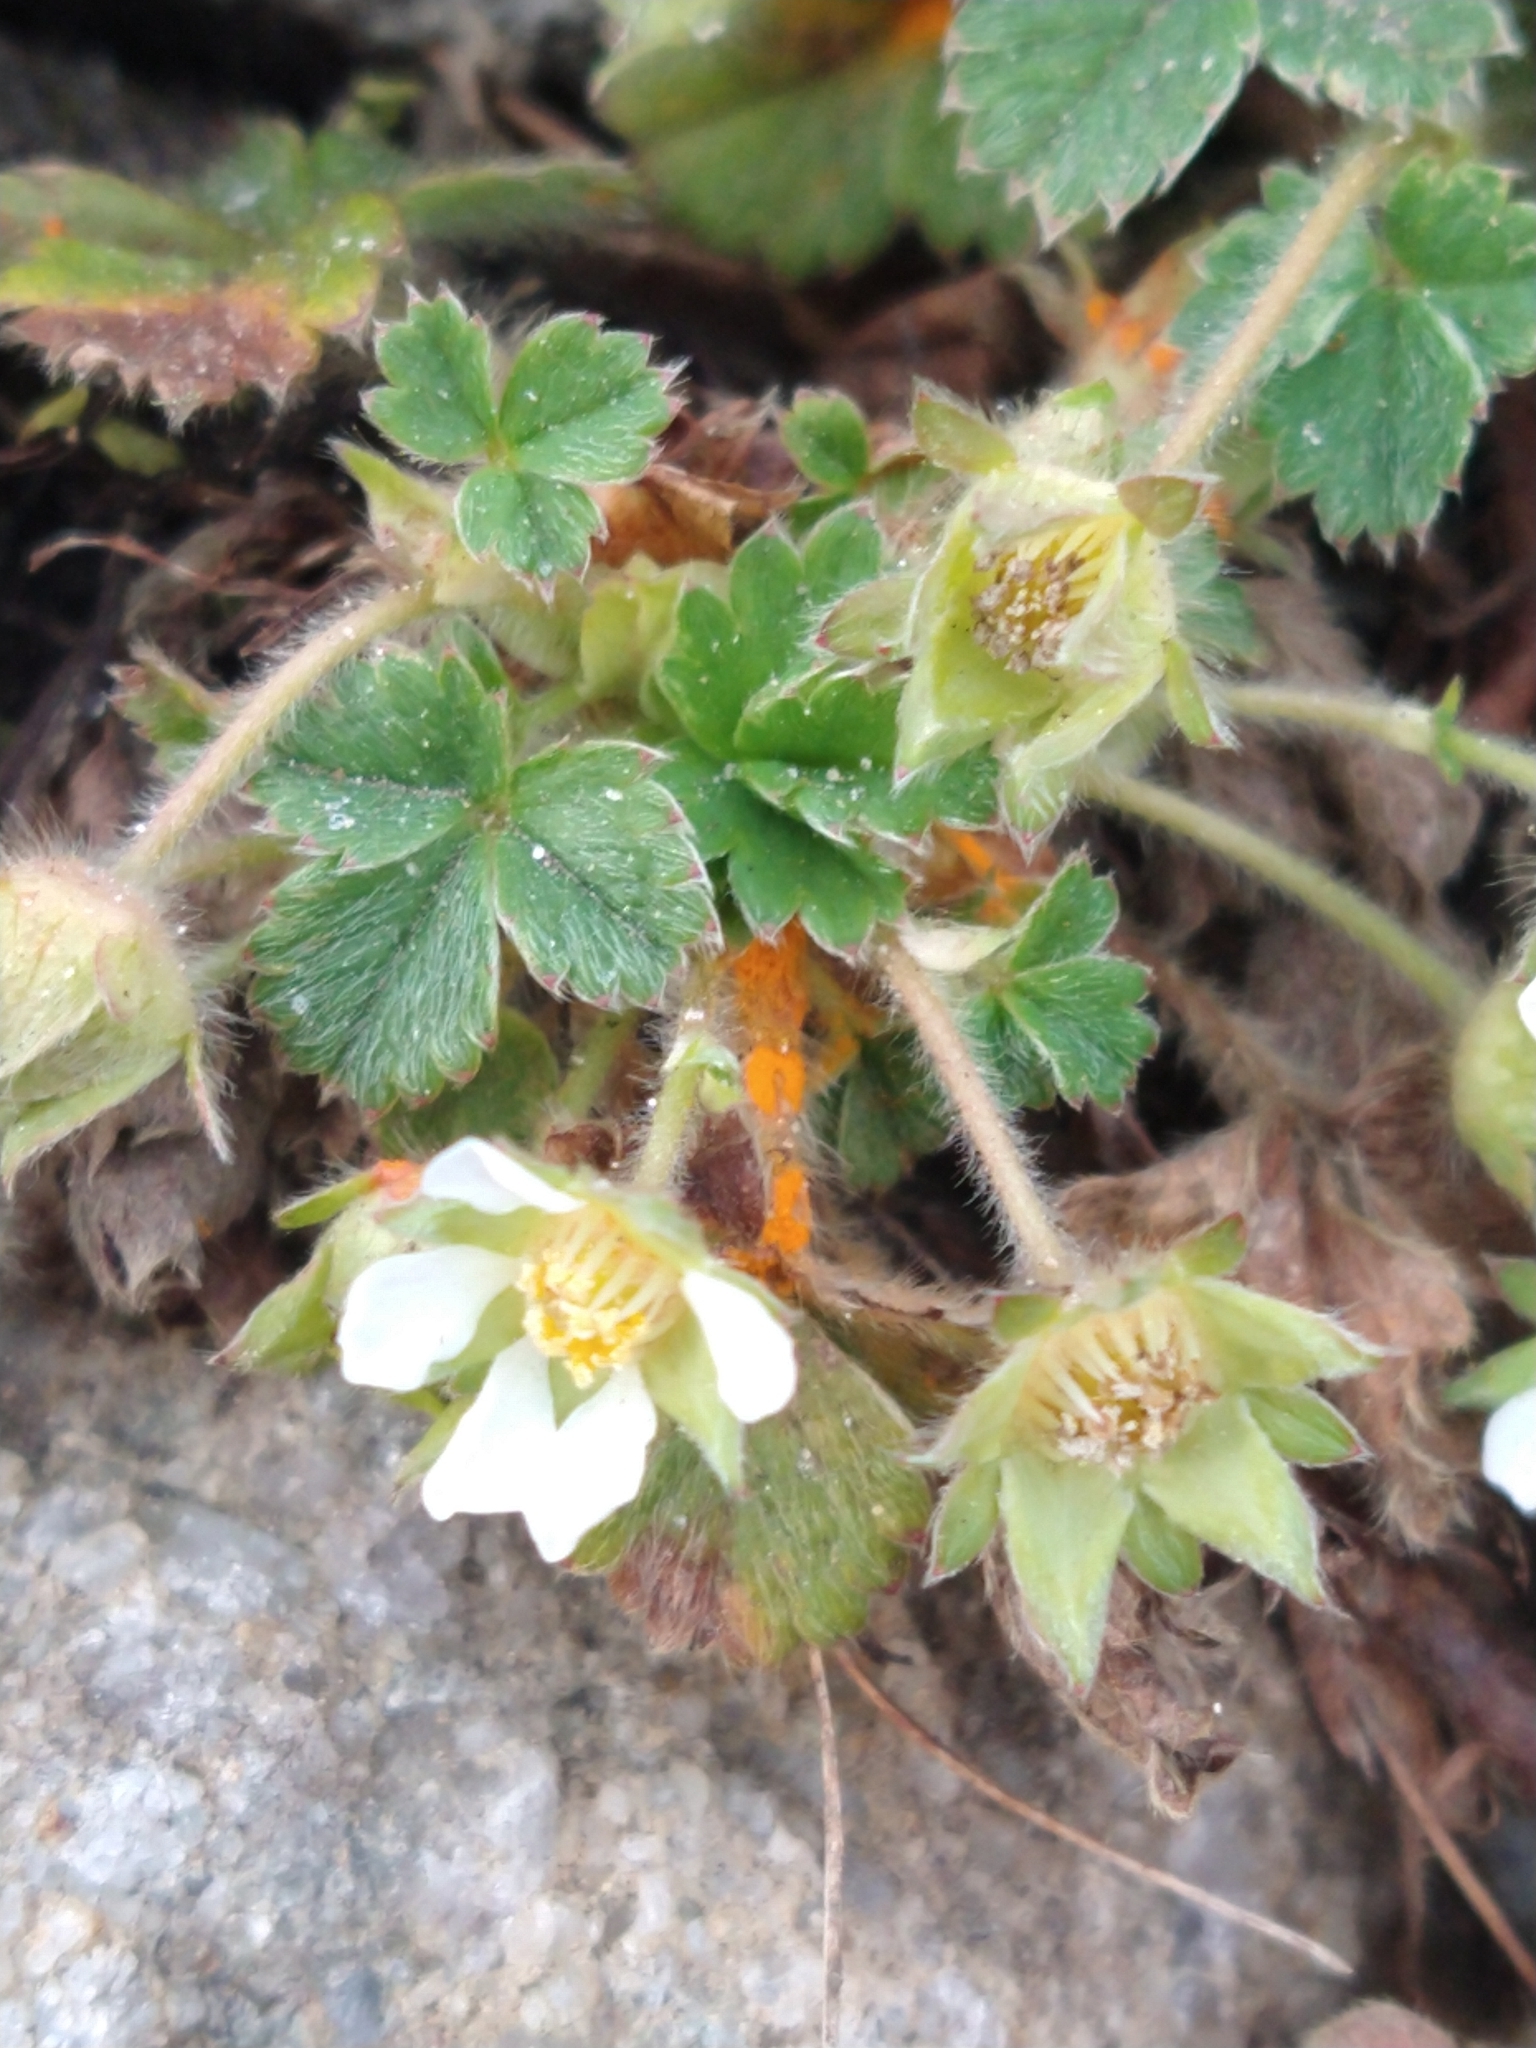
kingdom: Plantae
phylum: Tracheophyta
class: Magnoliopsida
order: Rosales
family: Rosaceae
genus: Potentilla
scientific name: Potentilla sterilis
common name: Barren strawberry
